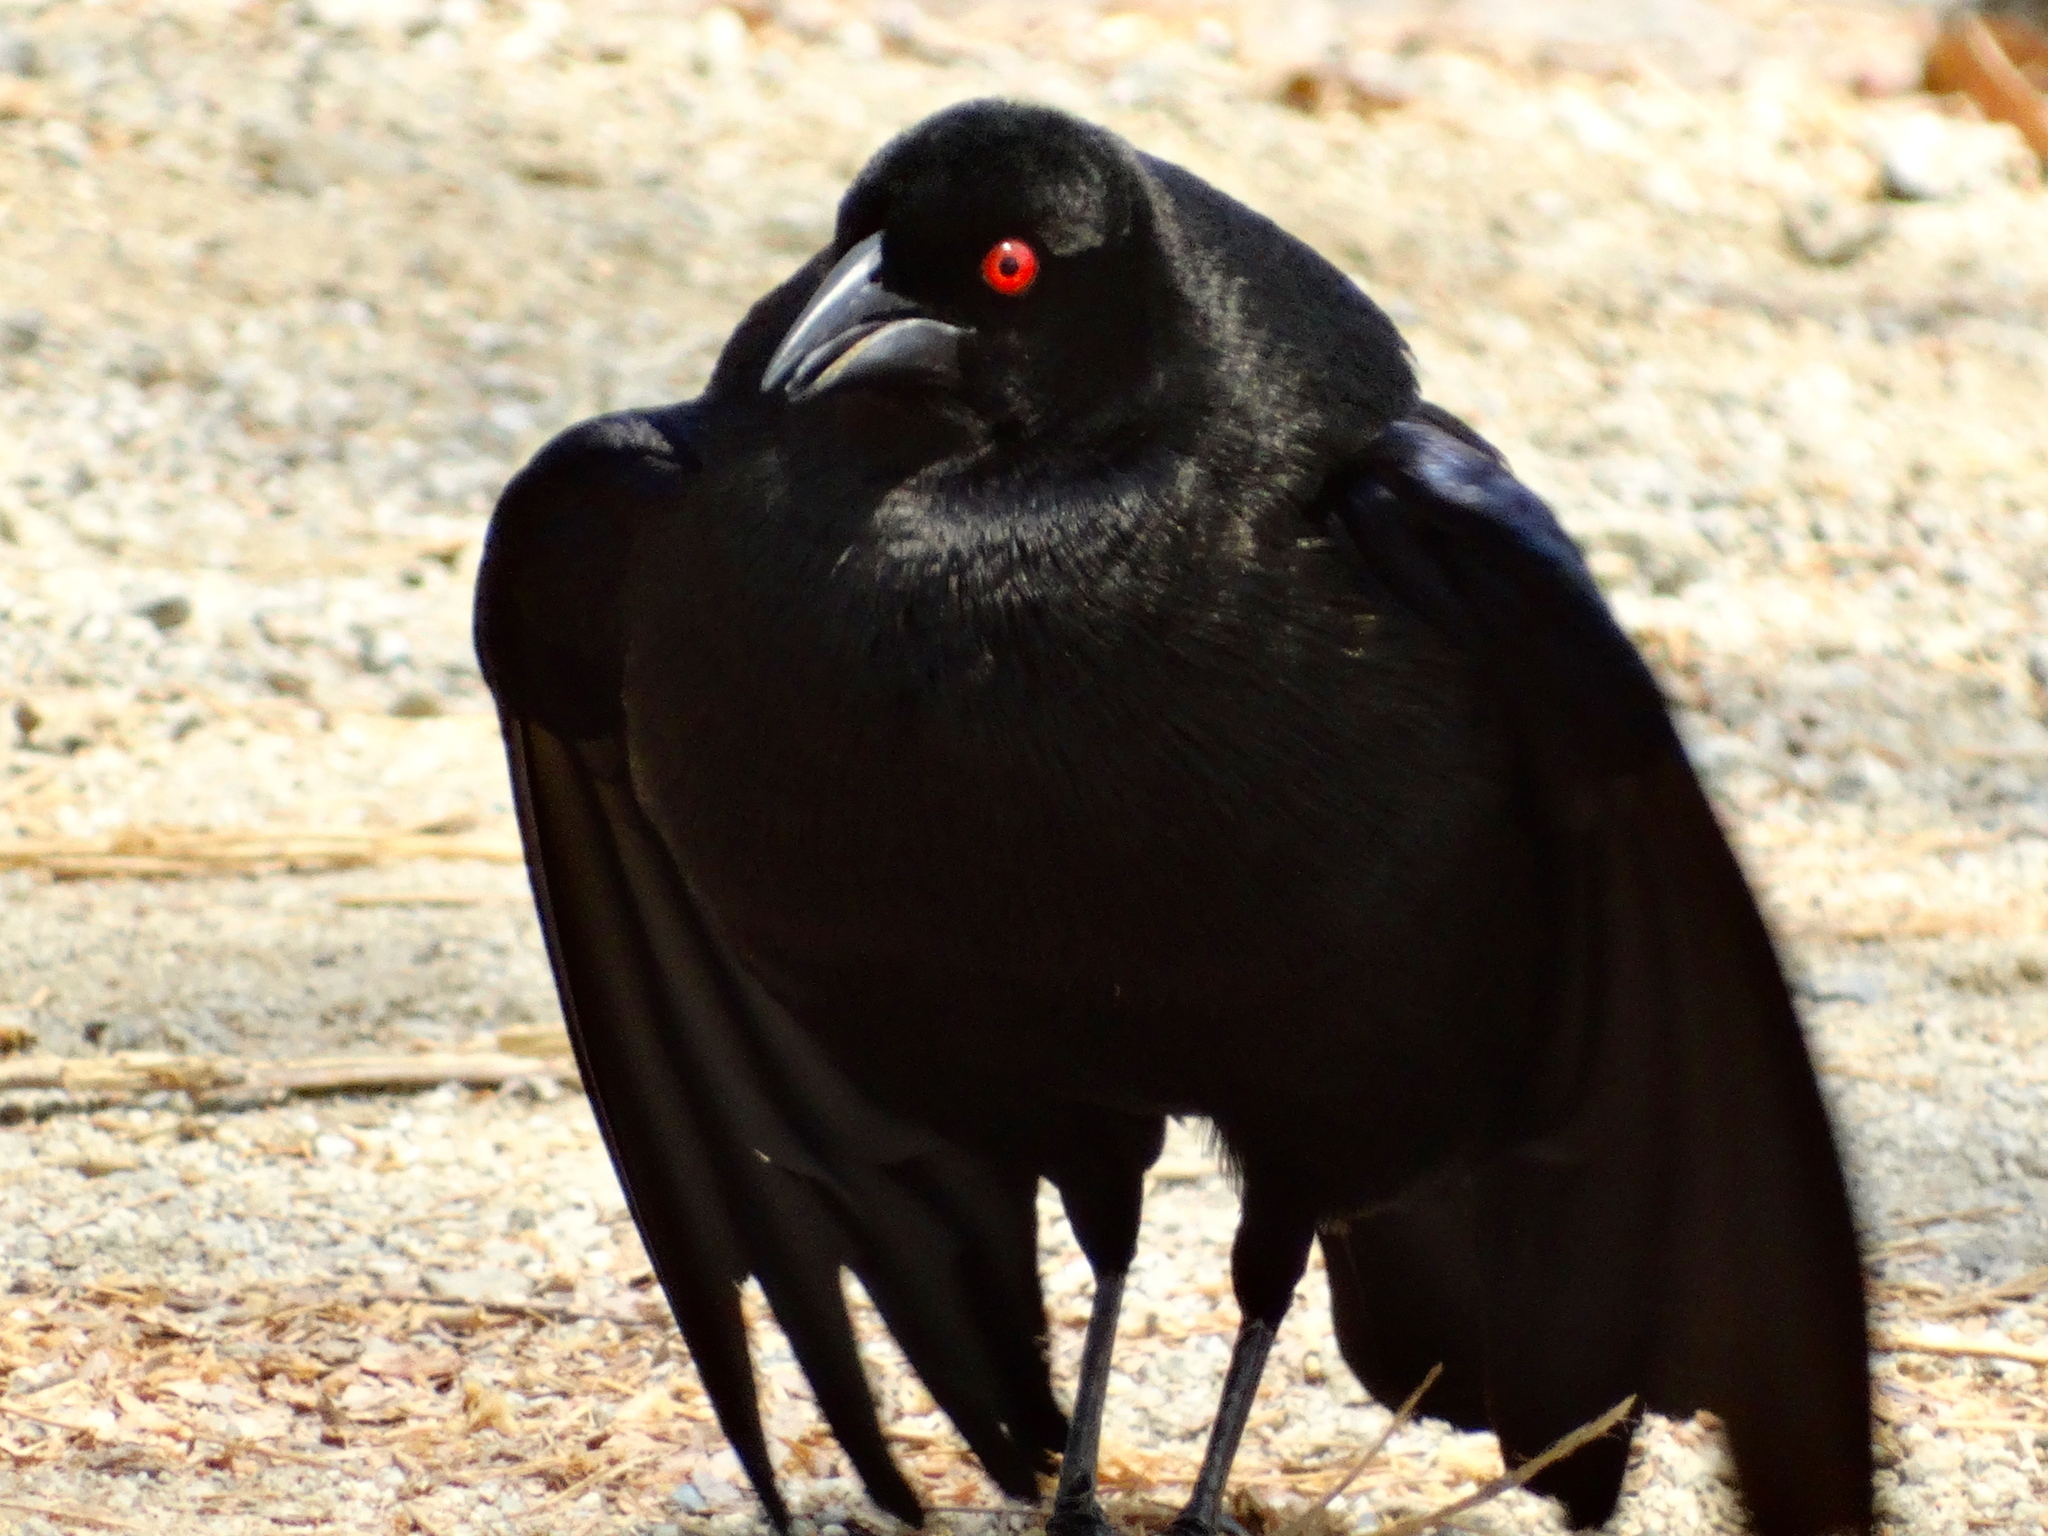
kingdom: Animalia
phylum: Chordata
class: Aves
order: Passeriformes
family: Icteridae
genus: Molothrus
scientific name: Molothrus aeneus
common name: Bronzed cowbird
